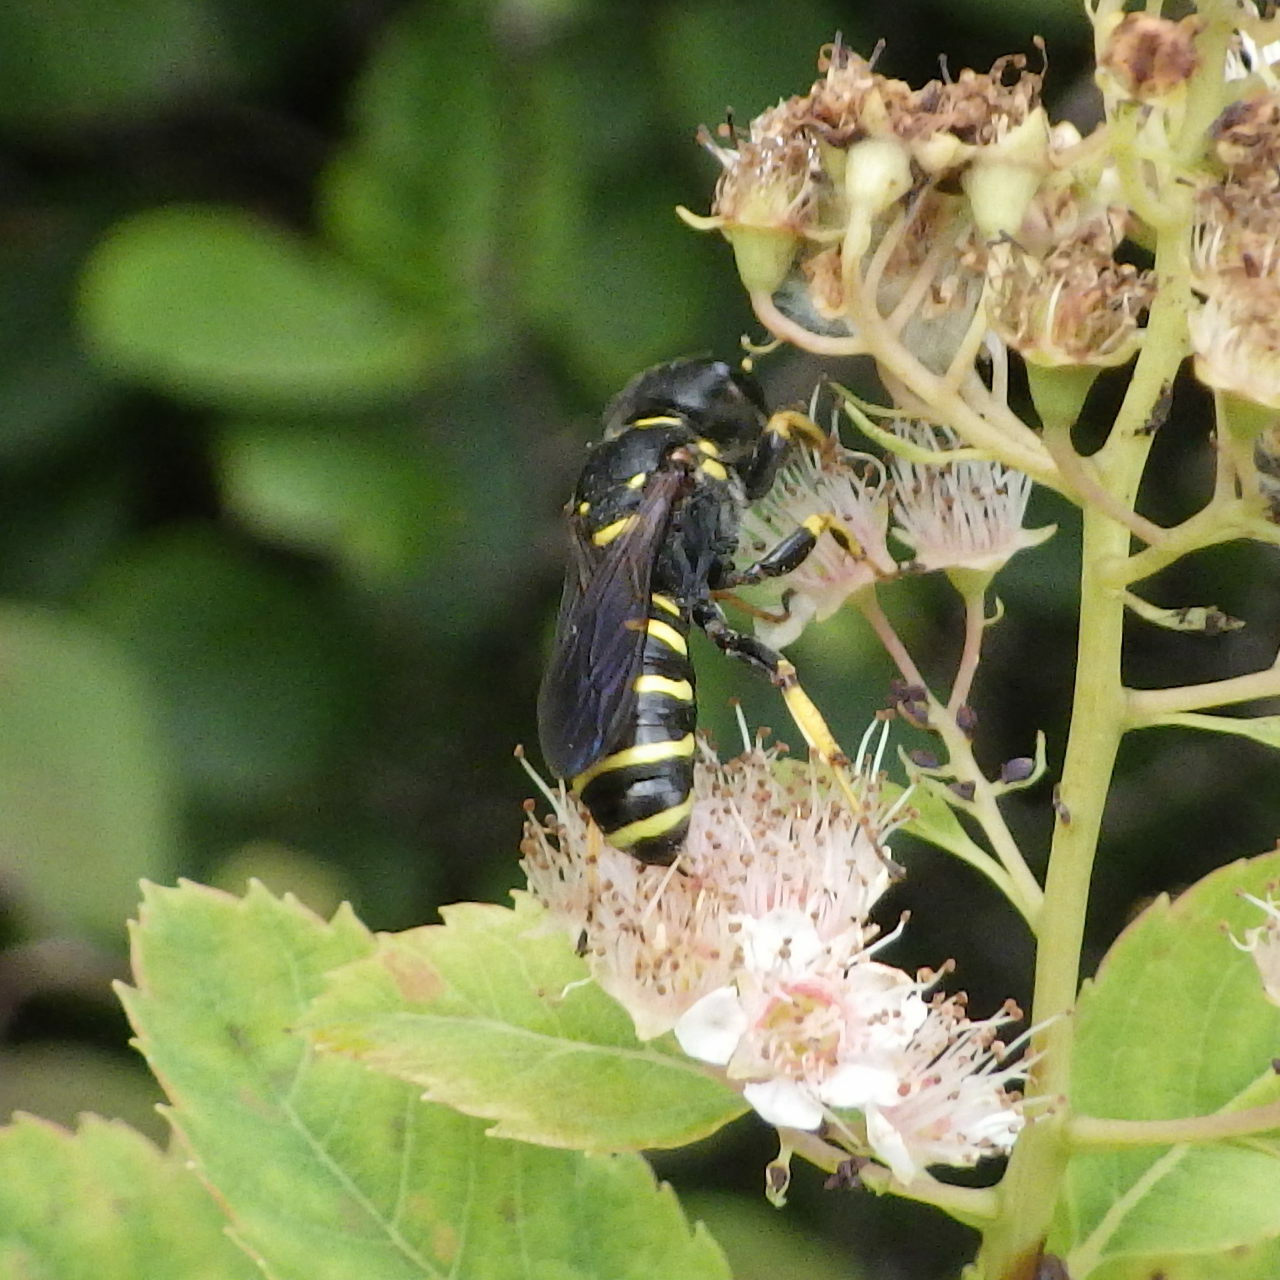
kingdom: Animalia
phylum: Arthropoda
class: Insecta
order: Hymenoptera
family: Crabronidae
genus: Ectemnius
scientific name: Ectemnius arcuatus
